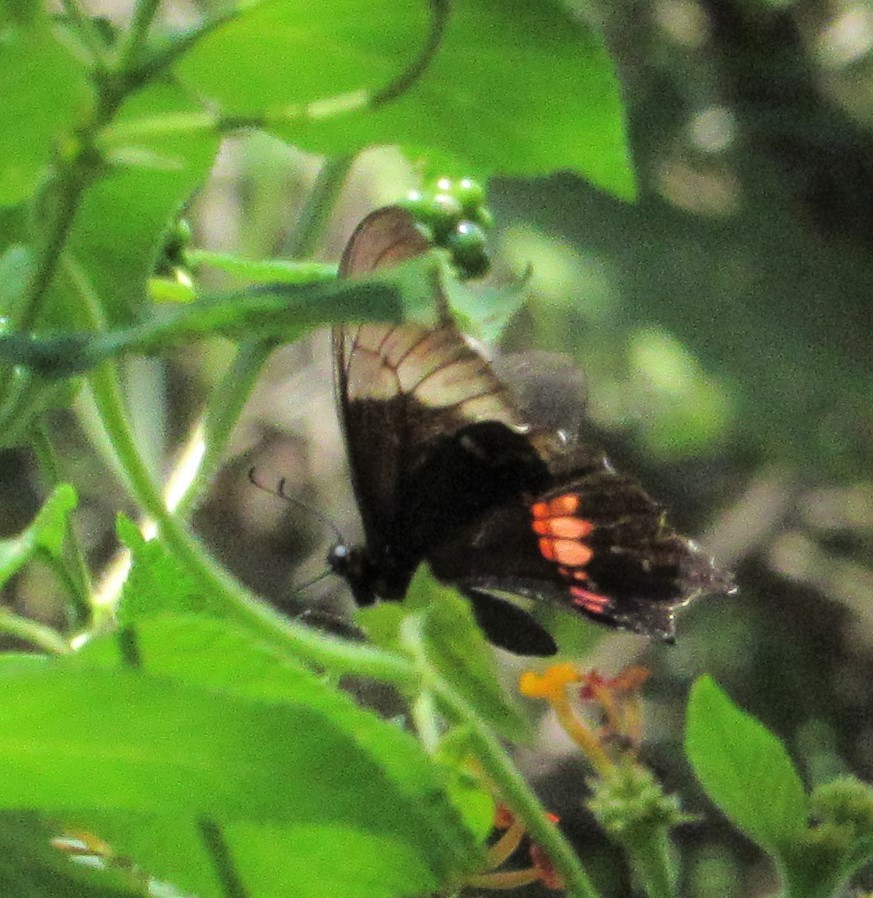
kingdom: Animalia
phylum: Arthropoda
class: Insecta
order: Lepidoptera
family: Papilionidae
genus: Papilio
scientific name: Papilio anchisiades
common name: Idaes swallowtail
